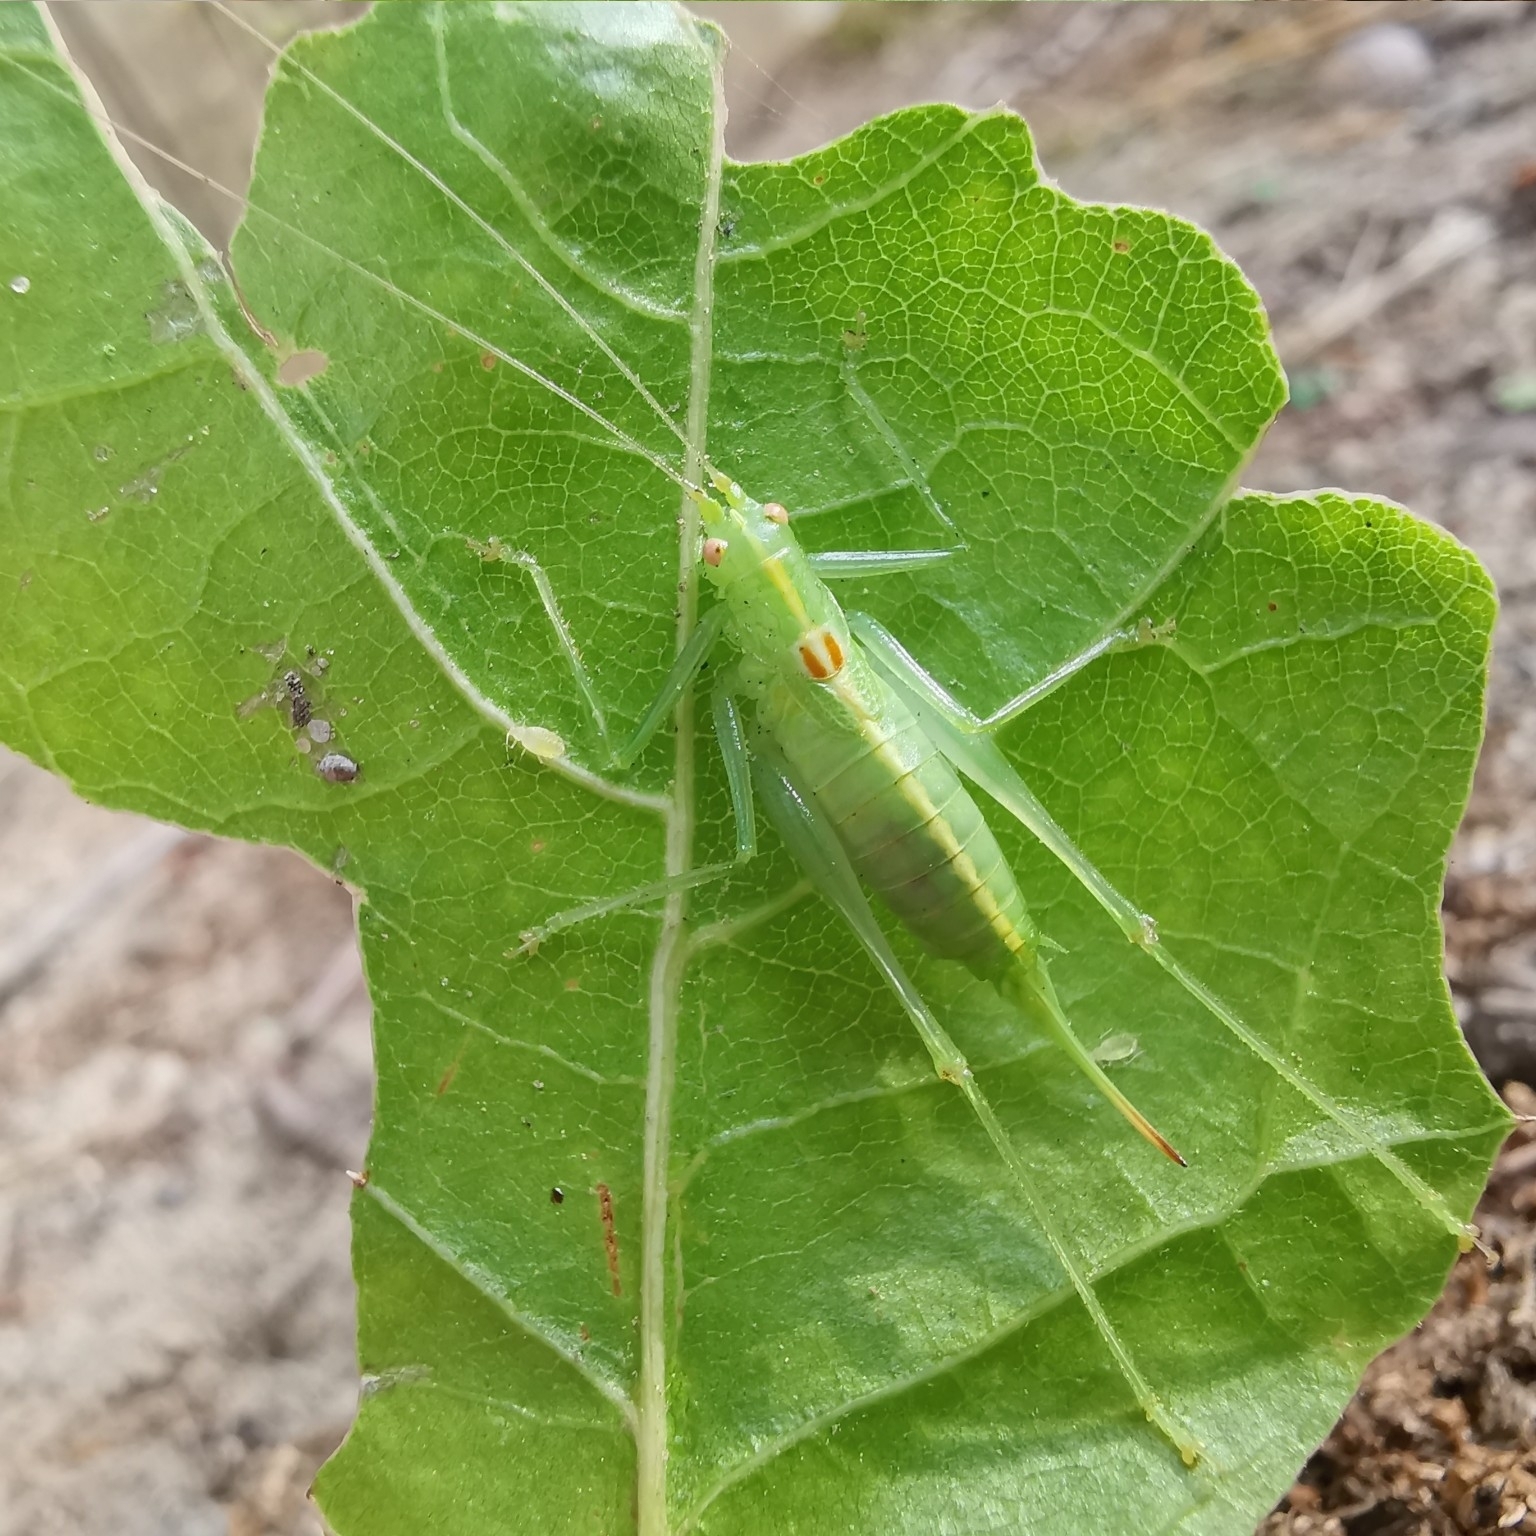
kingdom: Animalia
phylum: Arthropoda
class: Insecta
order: Orthoptera
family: Tettigoniidae
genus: Meconema
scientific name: Meconema meridionale
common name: Southern oak bush-cricket
